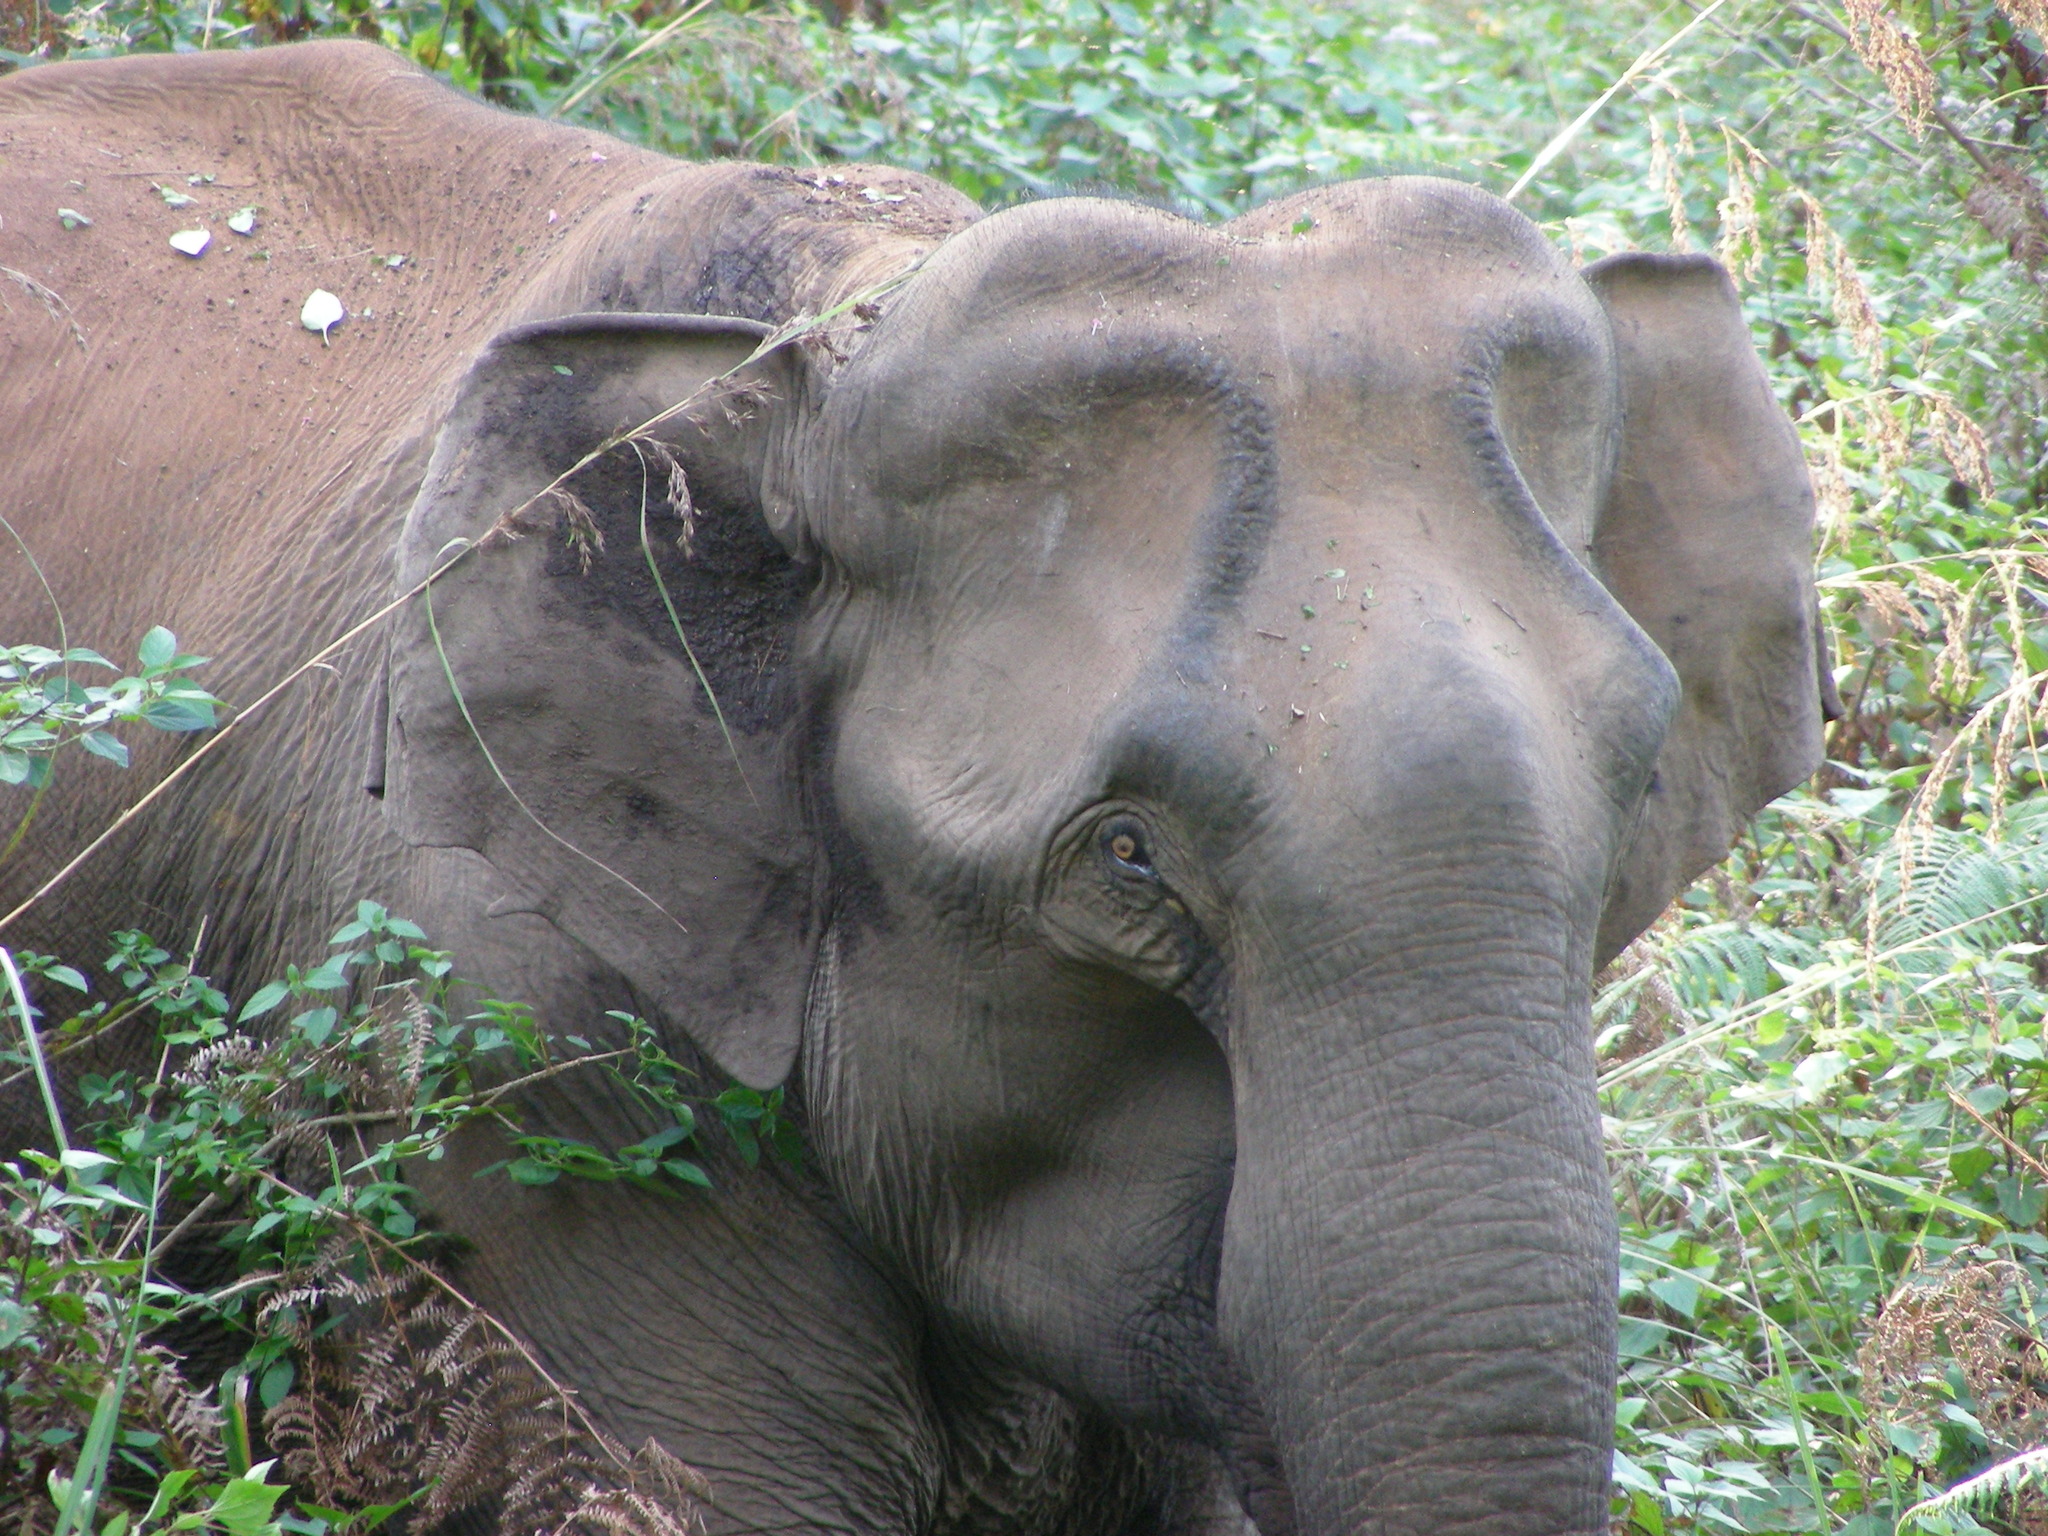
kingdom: Animalia
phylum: Chordata
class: Mammalia
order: Proboscidea
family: Elephantidae
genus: Elephas
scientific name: Elephas maximus
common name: Asian elephant
